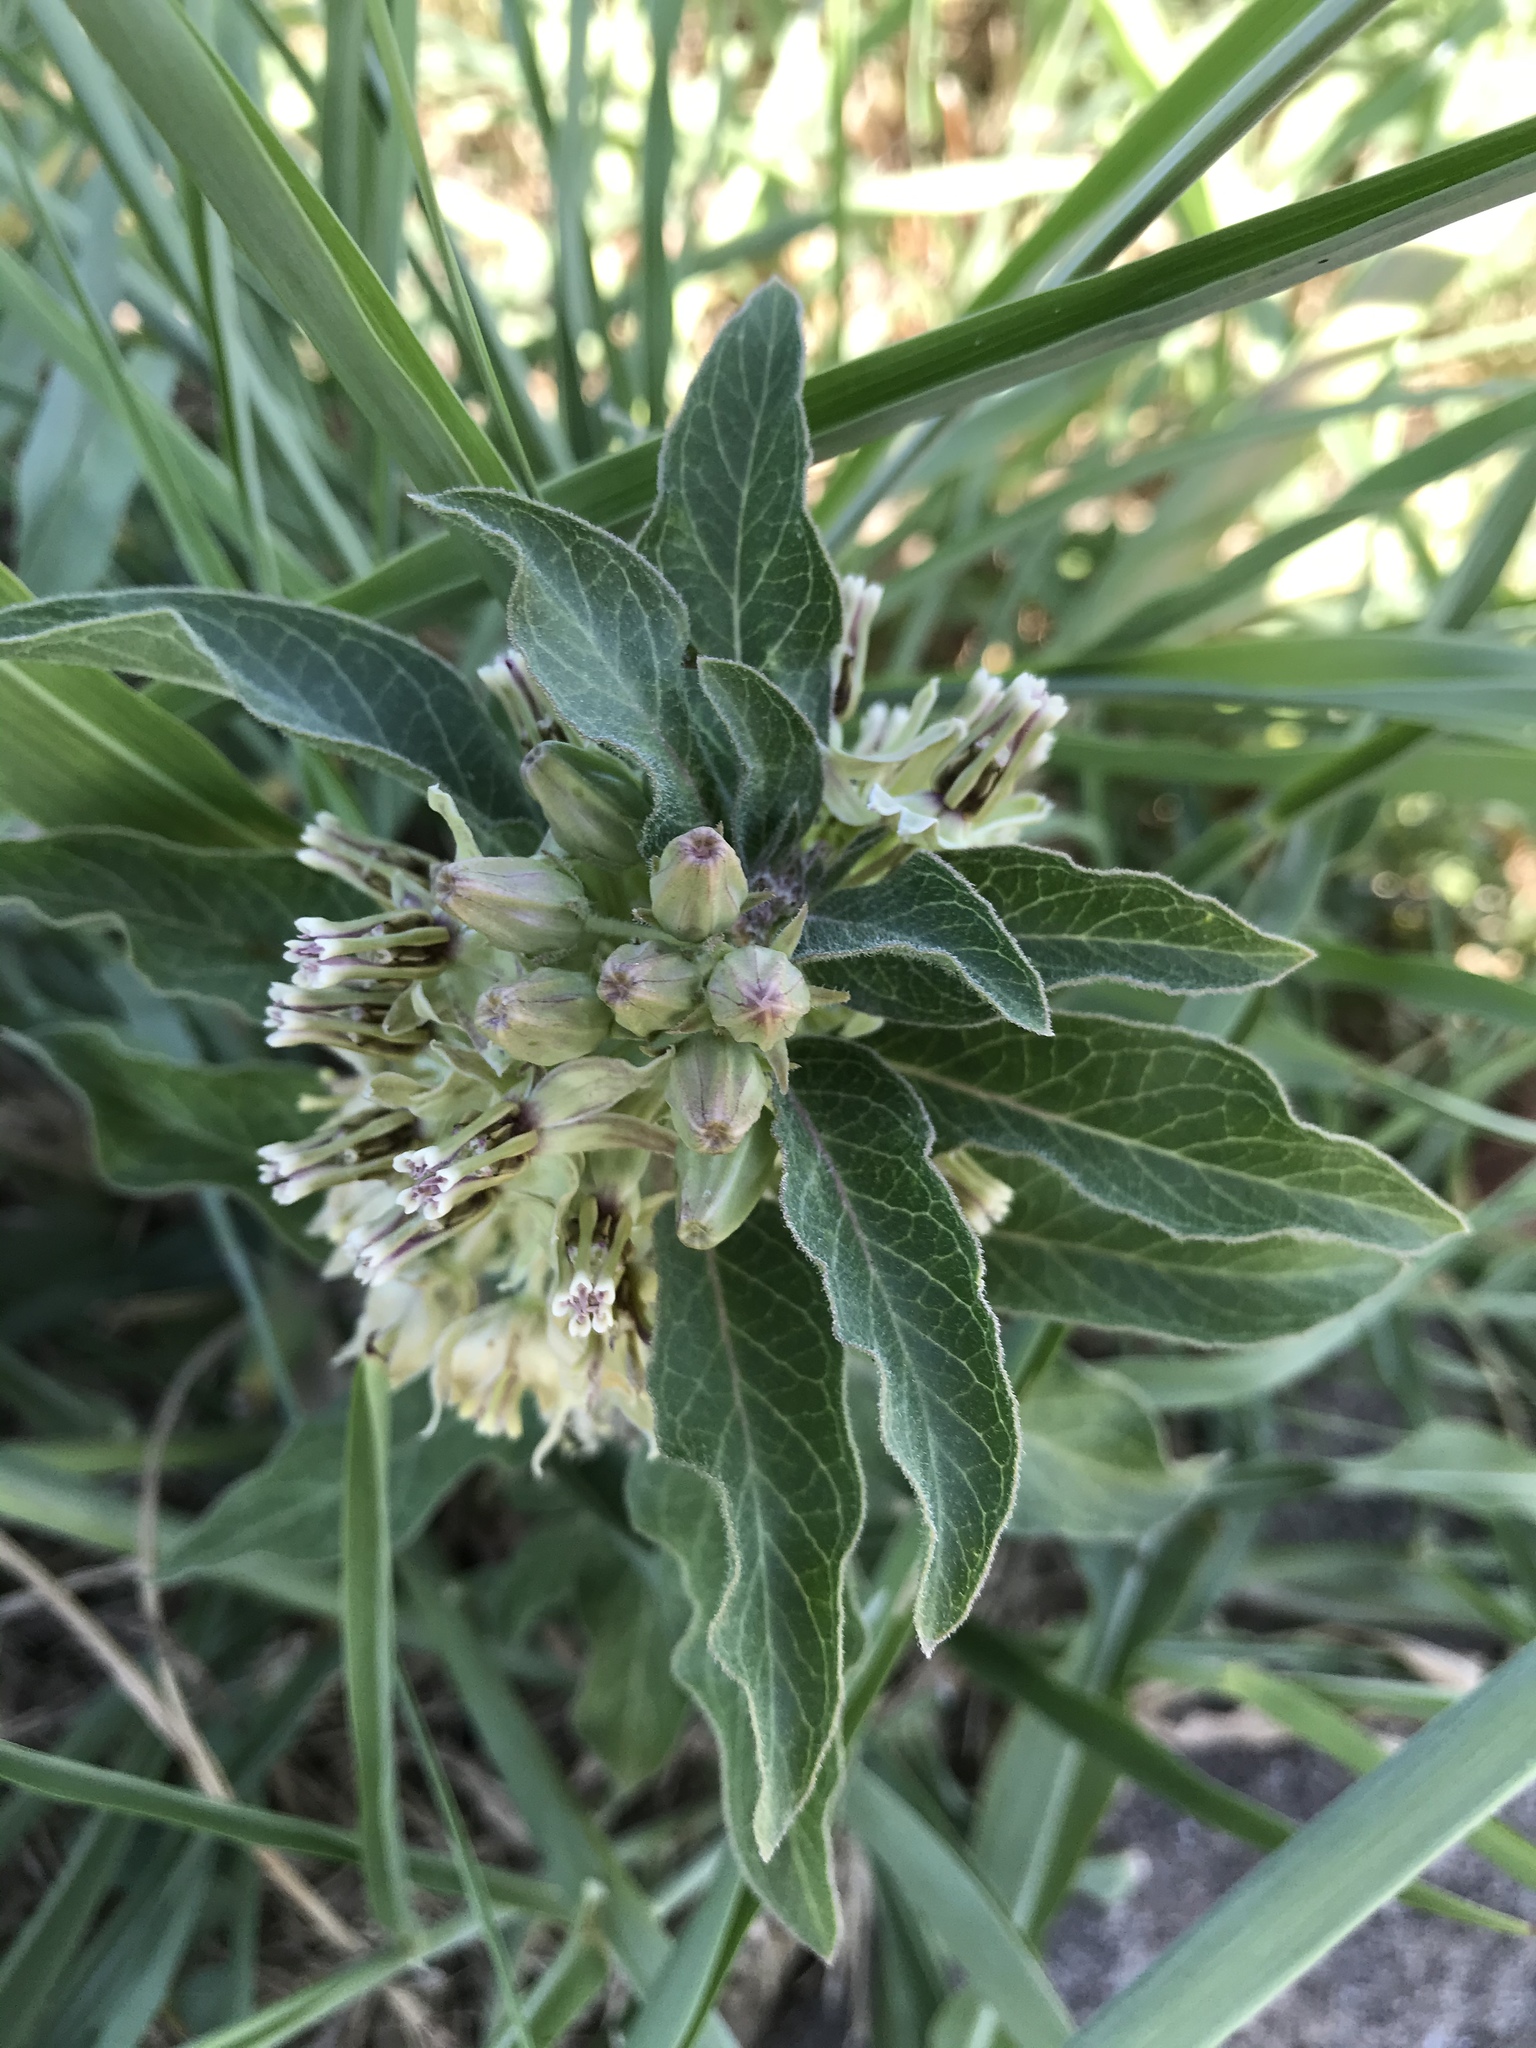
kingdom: Plantae
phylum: Tracheophyta
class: Magnoliopsida
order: Gentianales
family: Apocynaceae
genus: Asclepias
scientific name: Asclepias oenotheroides
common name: Zizotes milkweed
